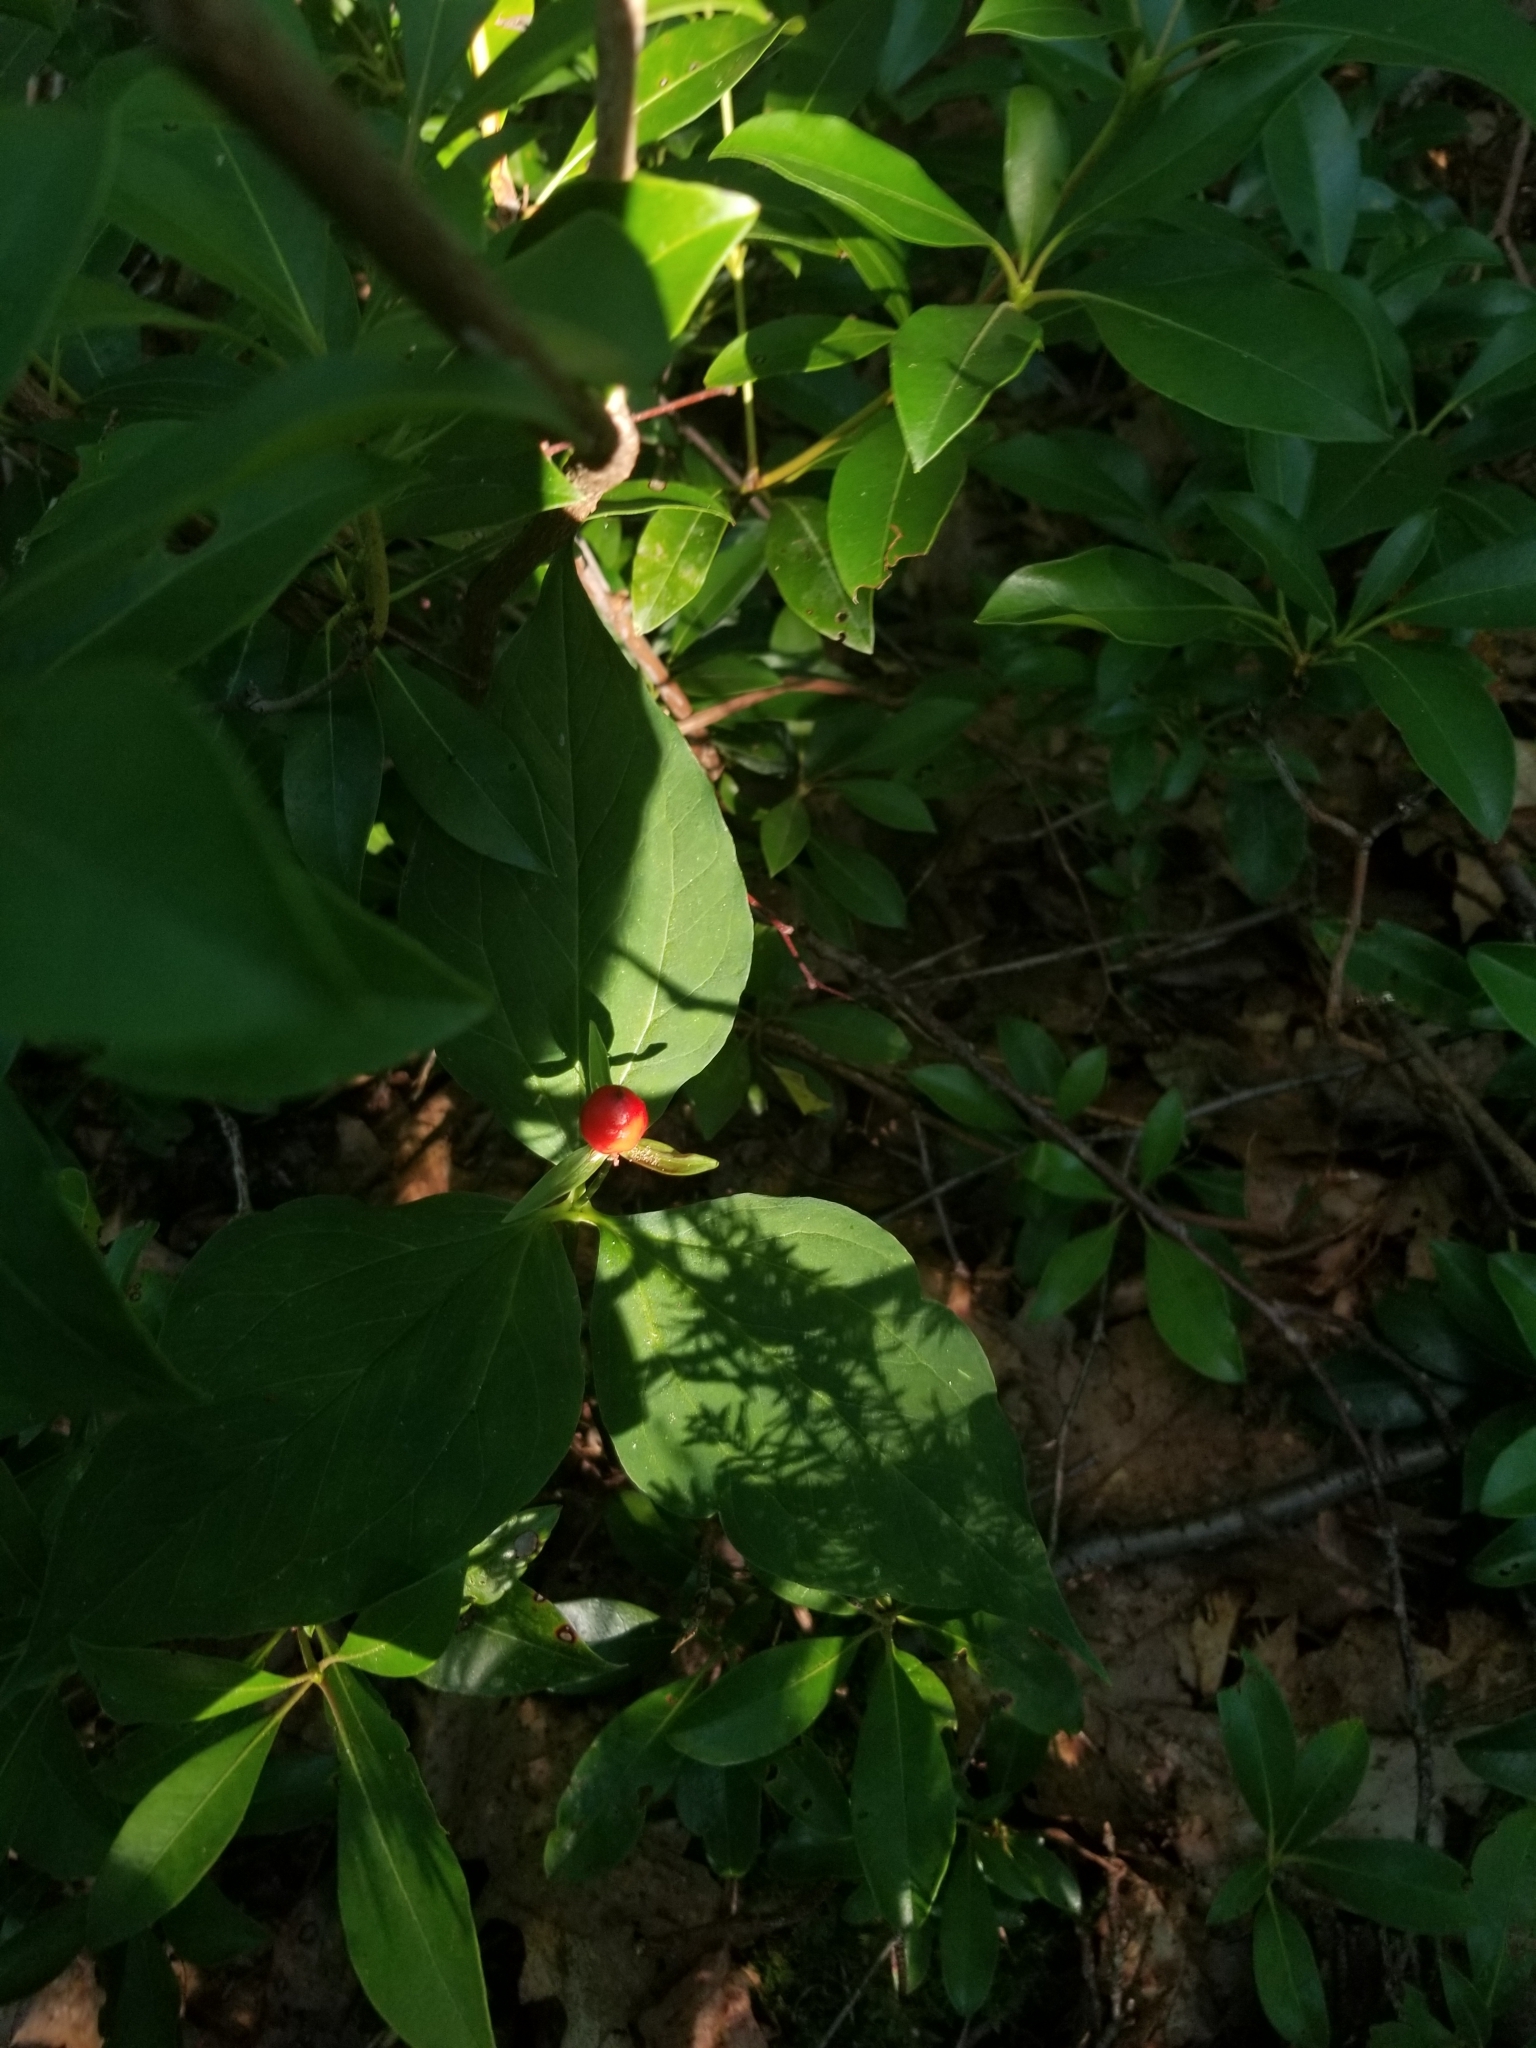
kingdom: Plantae
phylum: Tracheophyta
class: Liliopsida
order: Liliales
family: Melanthiaceae
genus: Trillium
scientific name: Trillium undulatum
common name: Paint trillium
